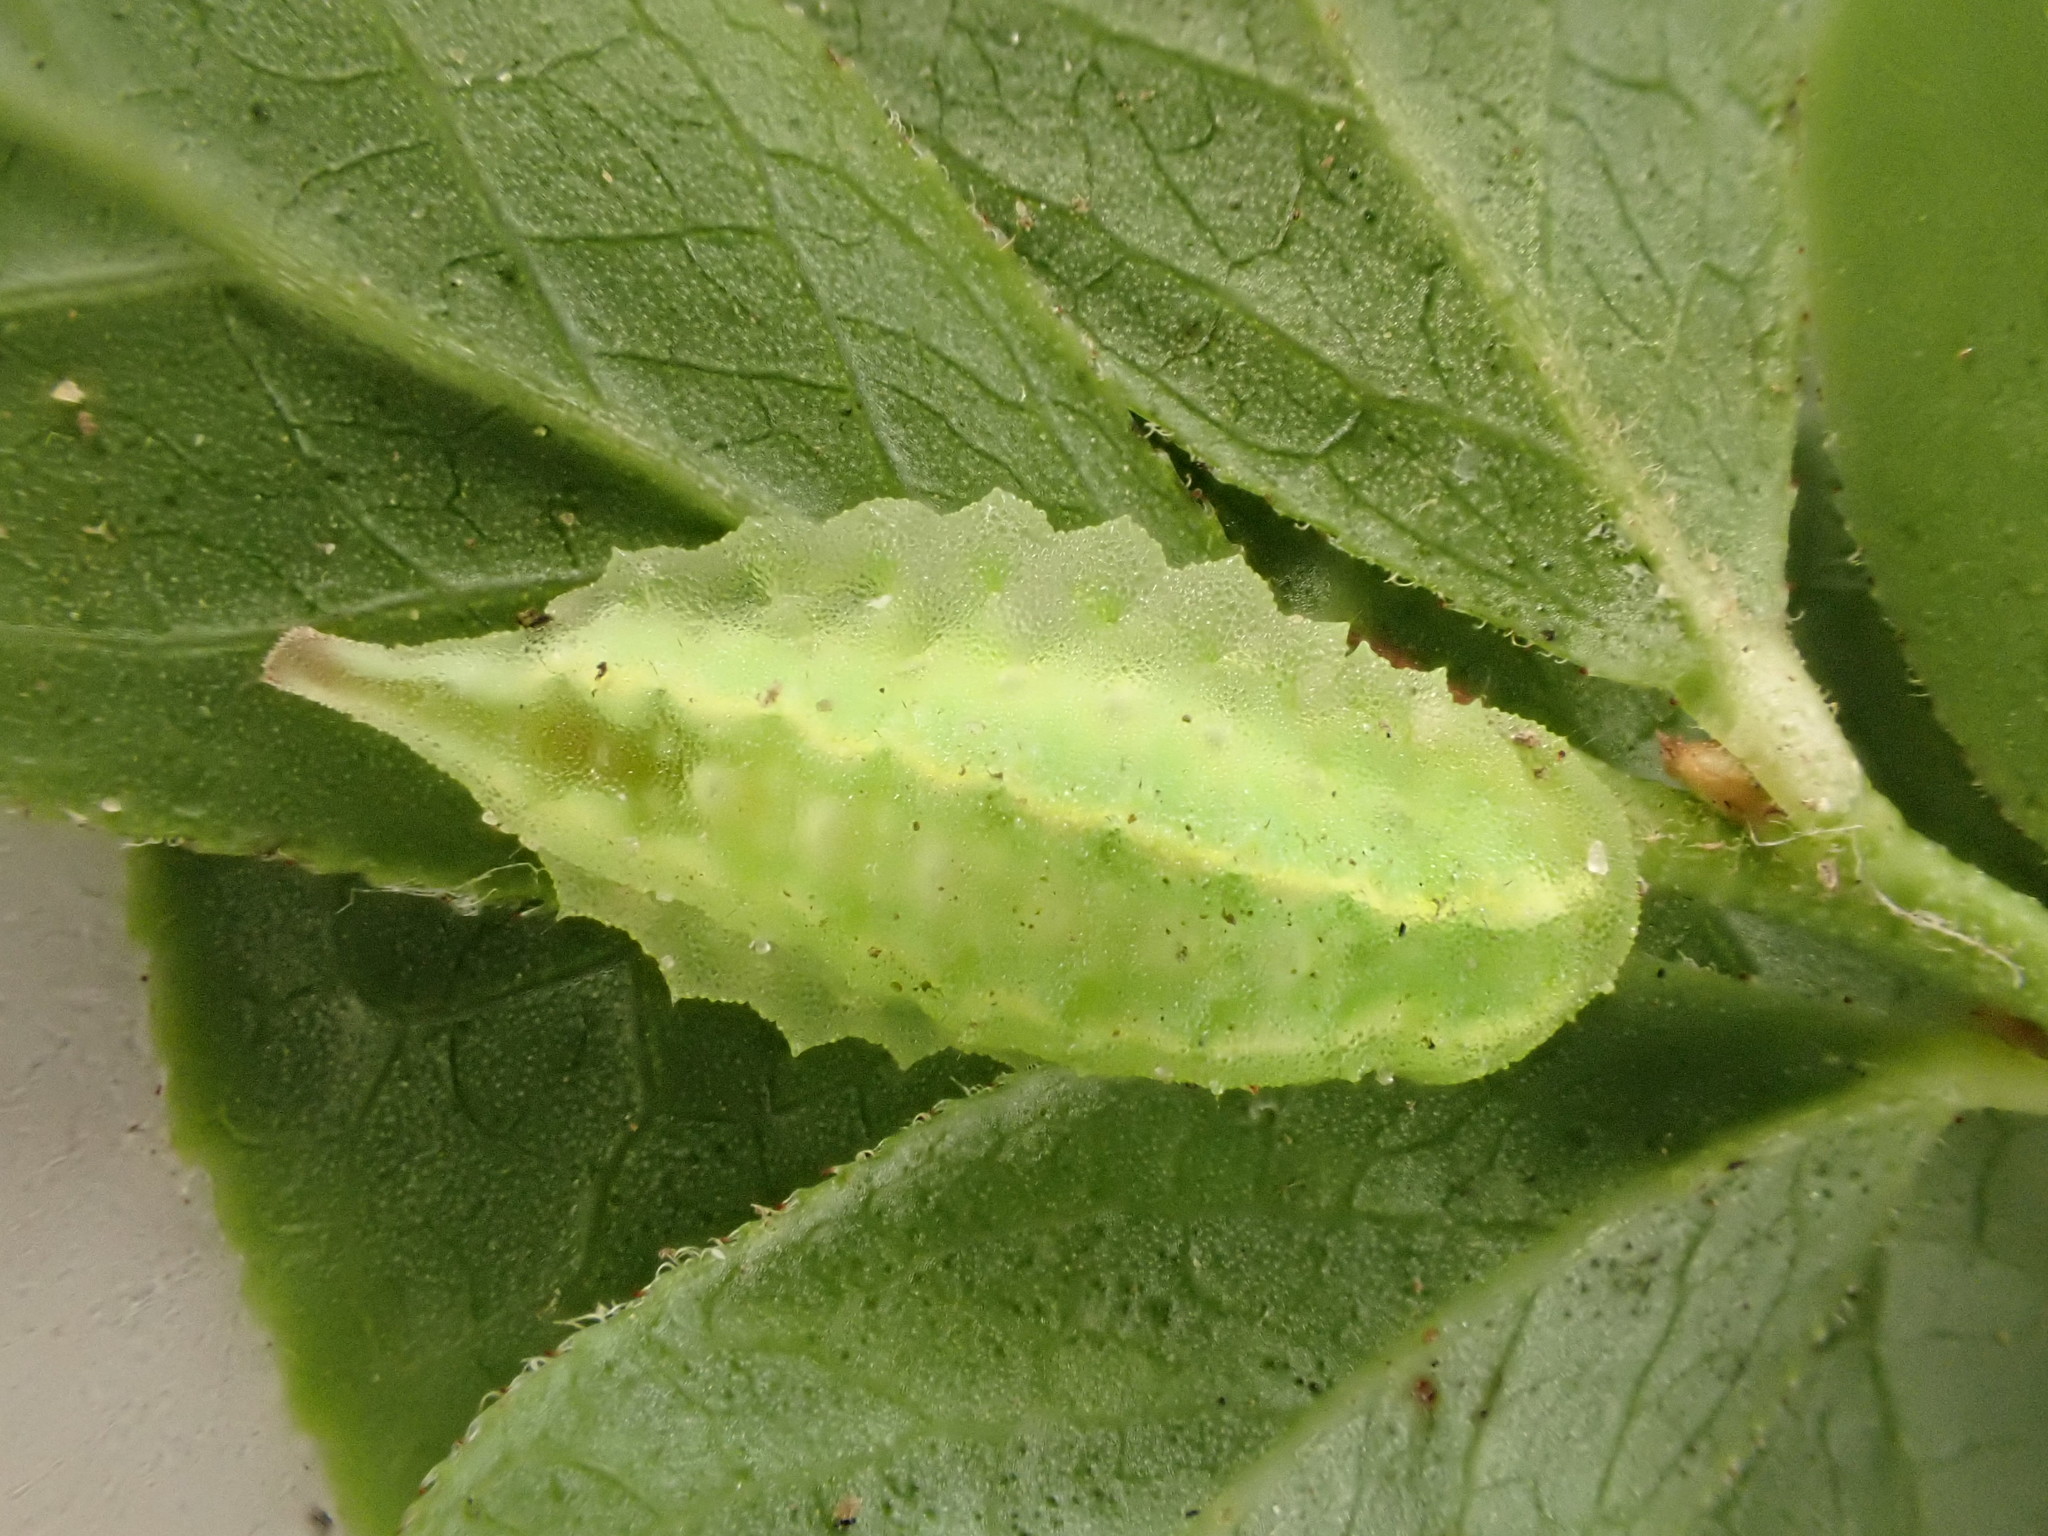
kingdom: Animalia
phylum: Arthropoda
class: Insecta
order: Lepidoptera
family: Limacodidae
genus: Packardia
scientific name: Packardia elegans
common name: Elegant tailed slug moth
